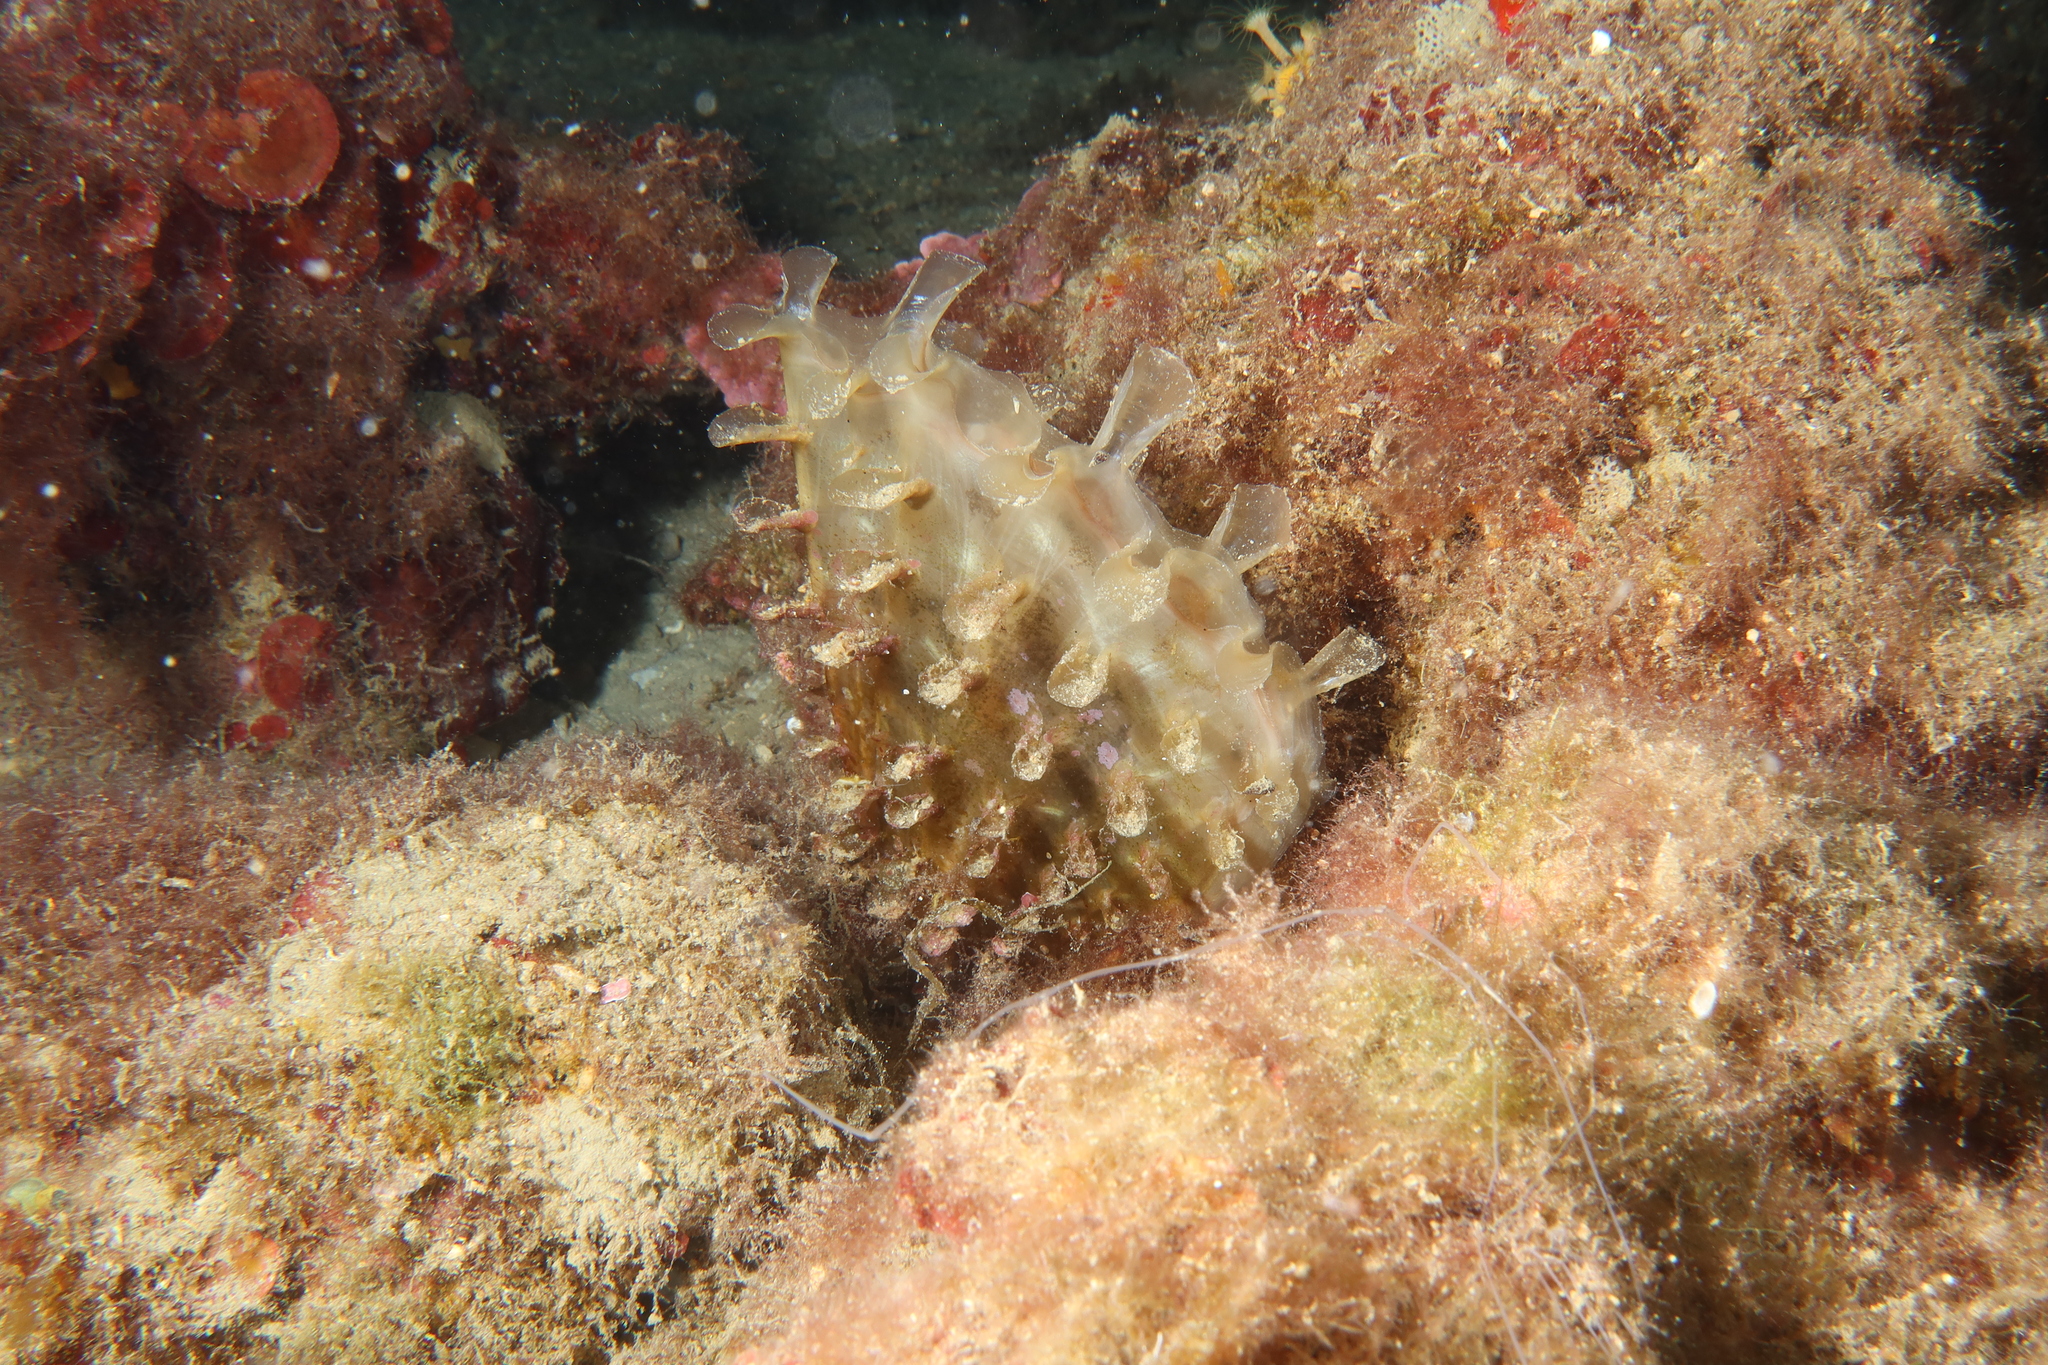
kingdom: Animalia
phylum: Mollusca
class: Bivalvia
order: Ostreida
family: Pinnidae
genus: Pinna
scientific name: Pinna rudis
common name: Rough penshell
